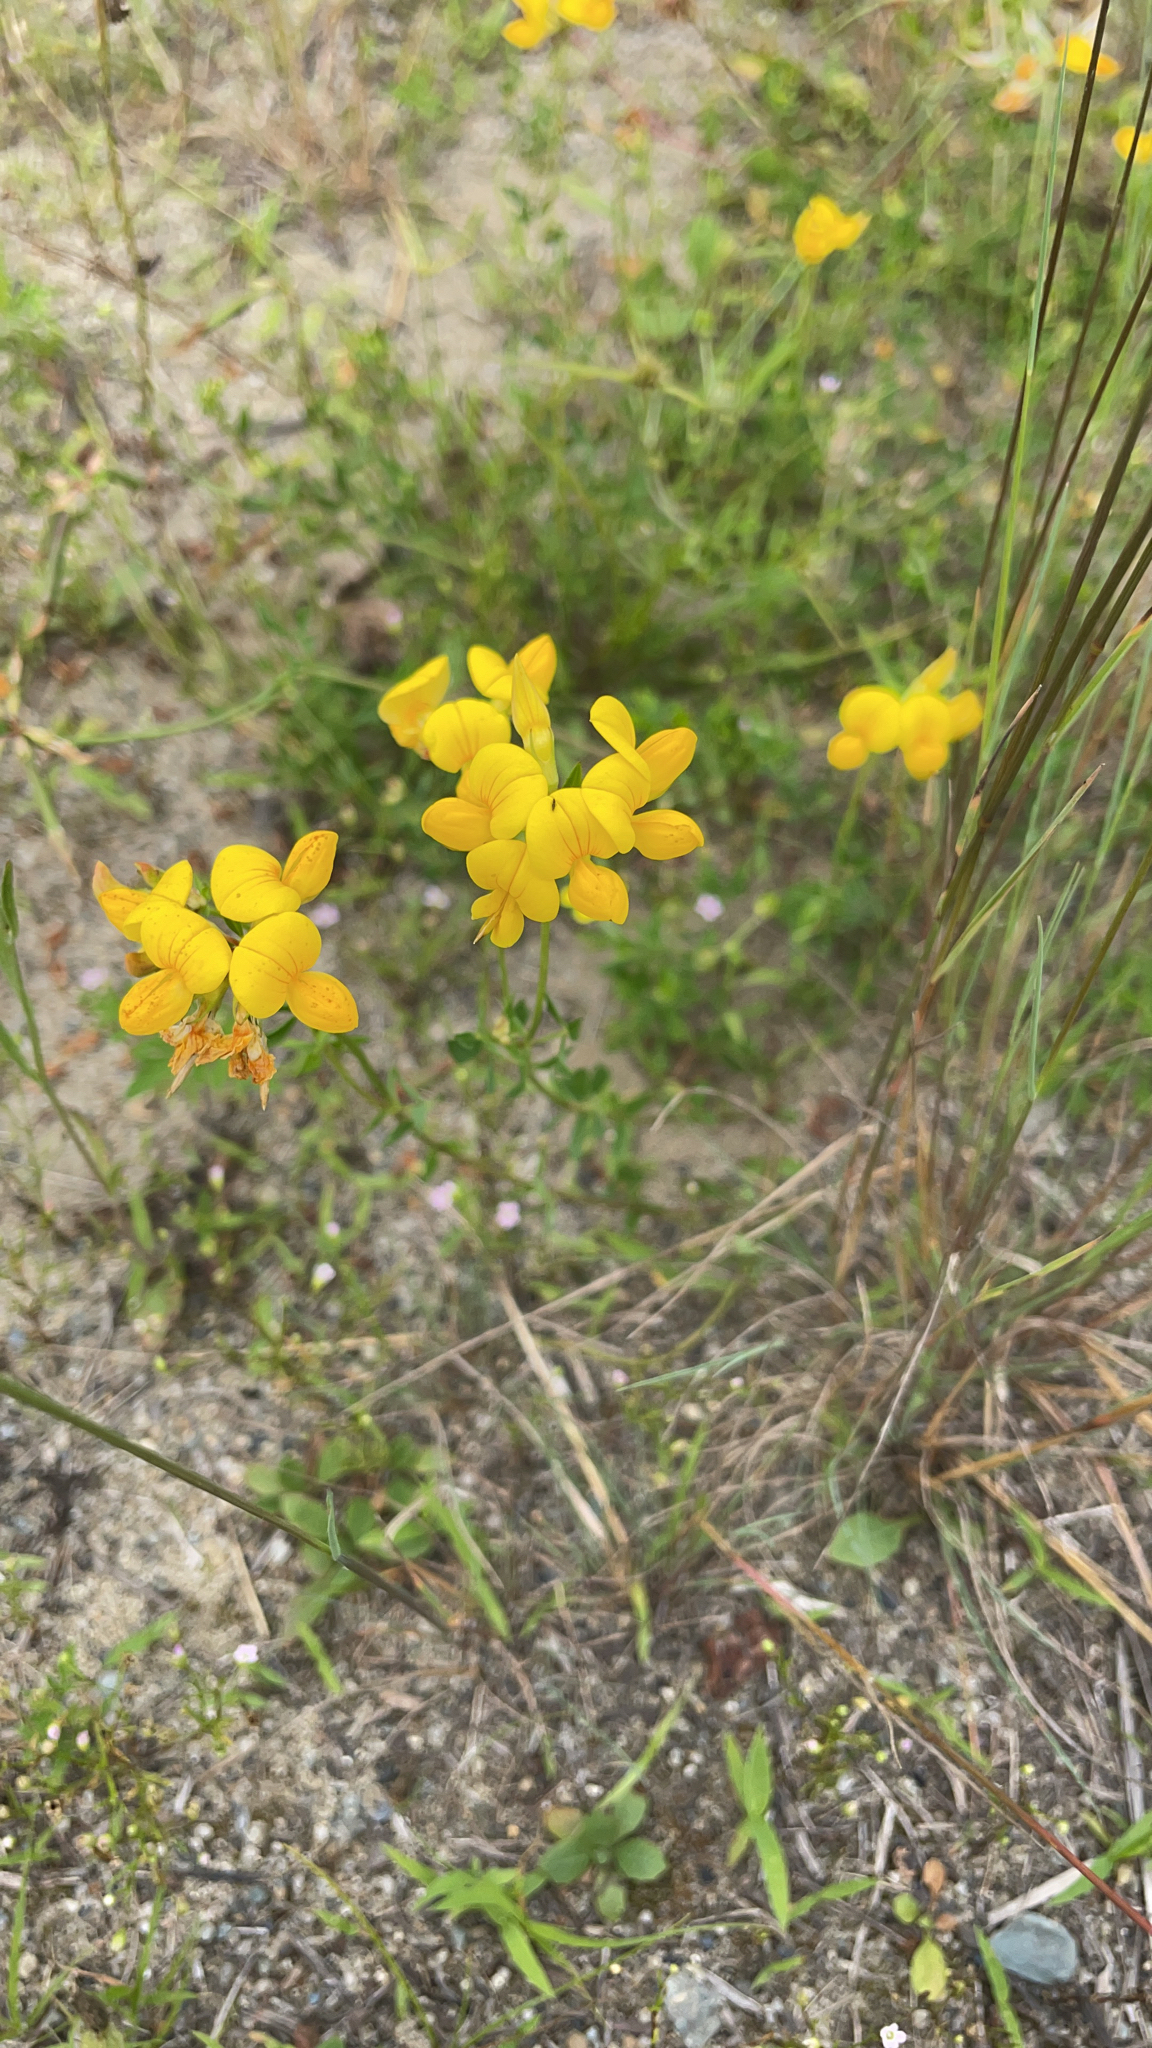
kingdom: Plantae
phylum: Tracheophyta
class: Magnoliopsida
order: Fabales
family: Fabaceae
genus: Lotus
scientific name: Lotus corniculatus
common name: Common bird's-foot-trefoil
